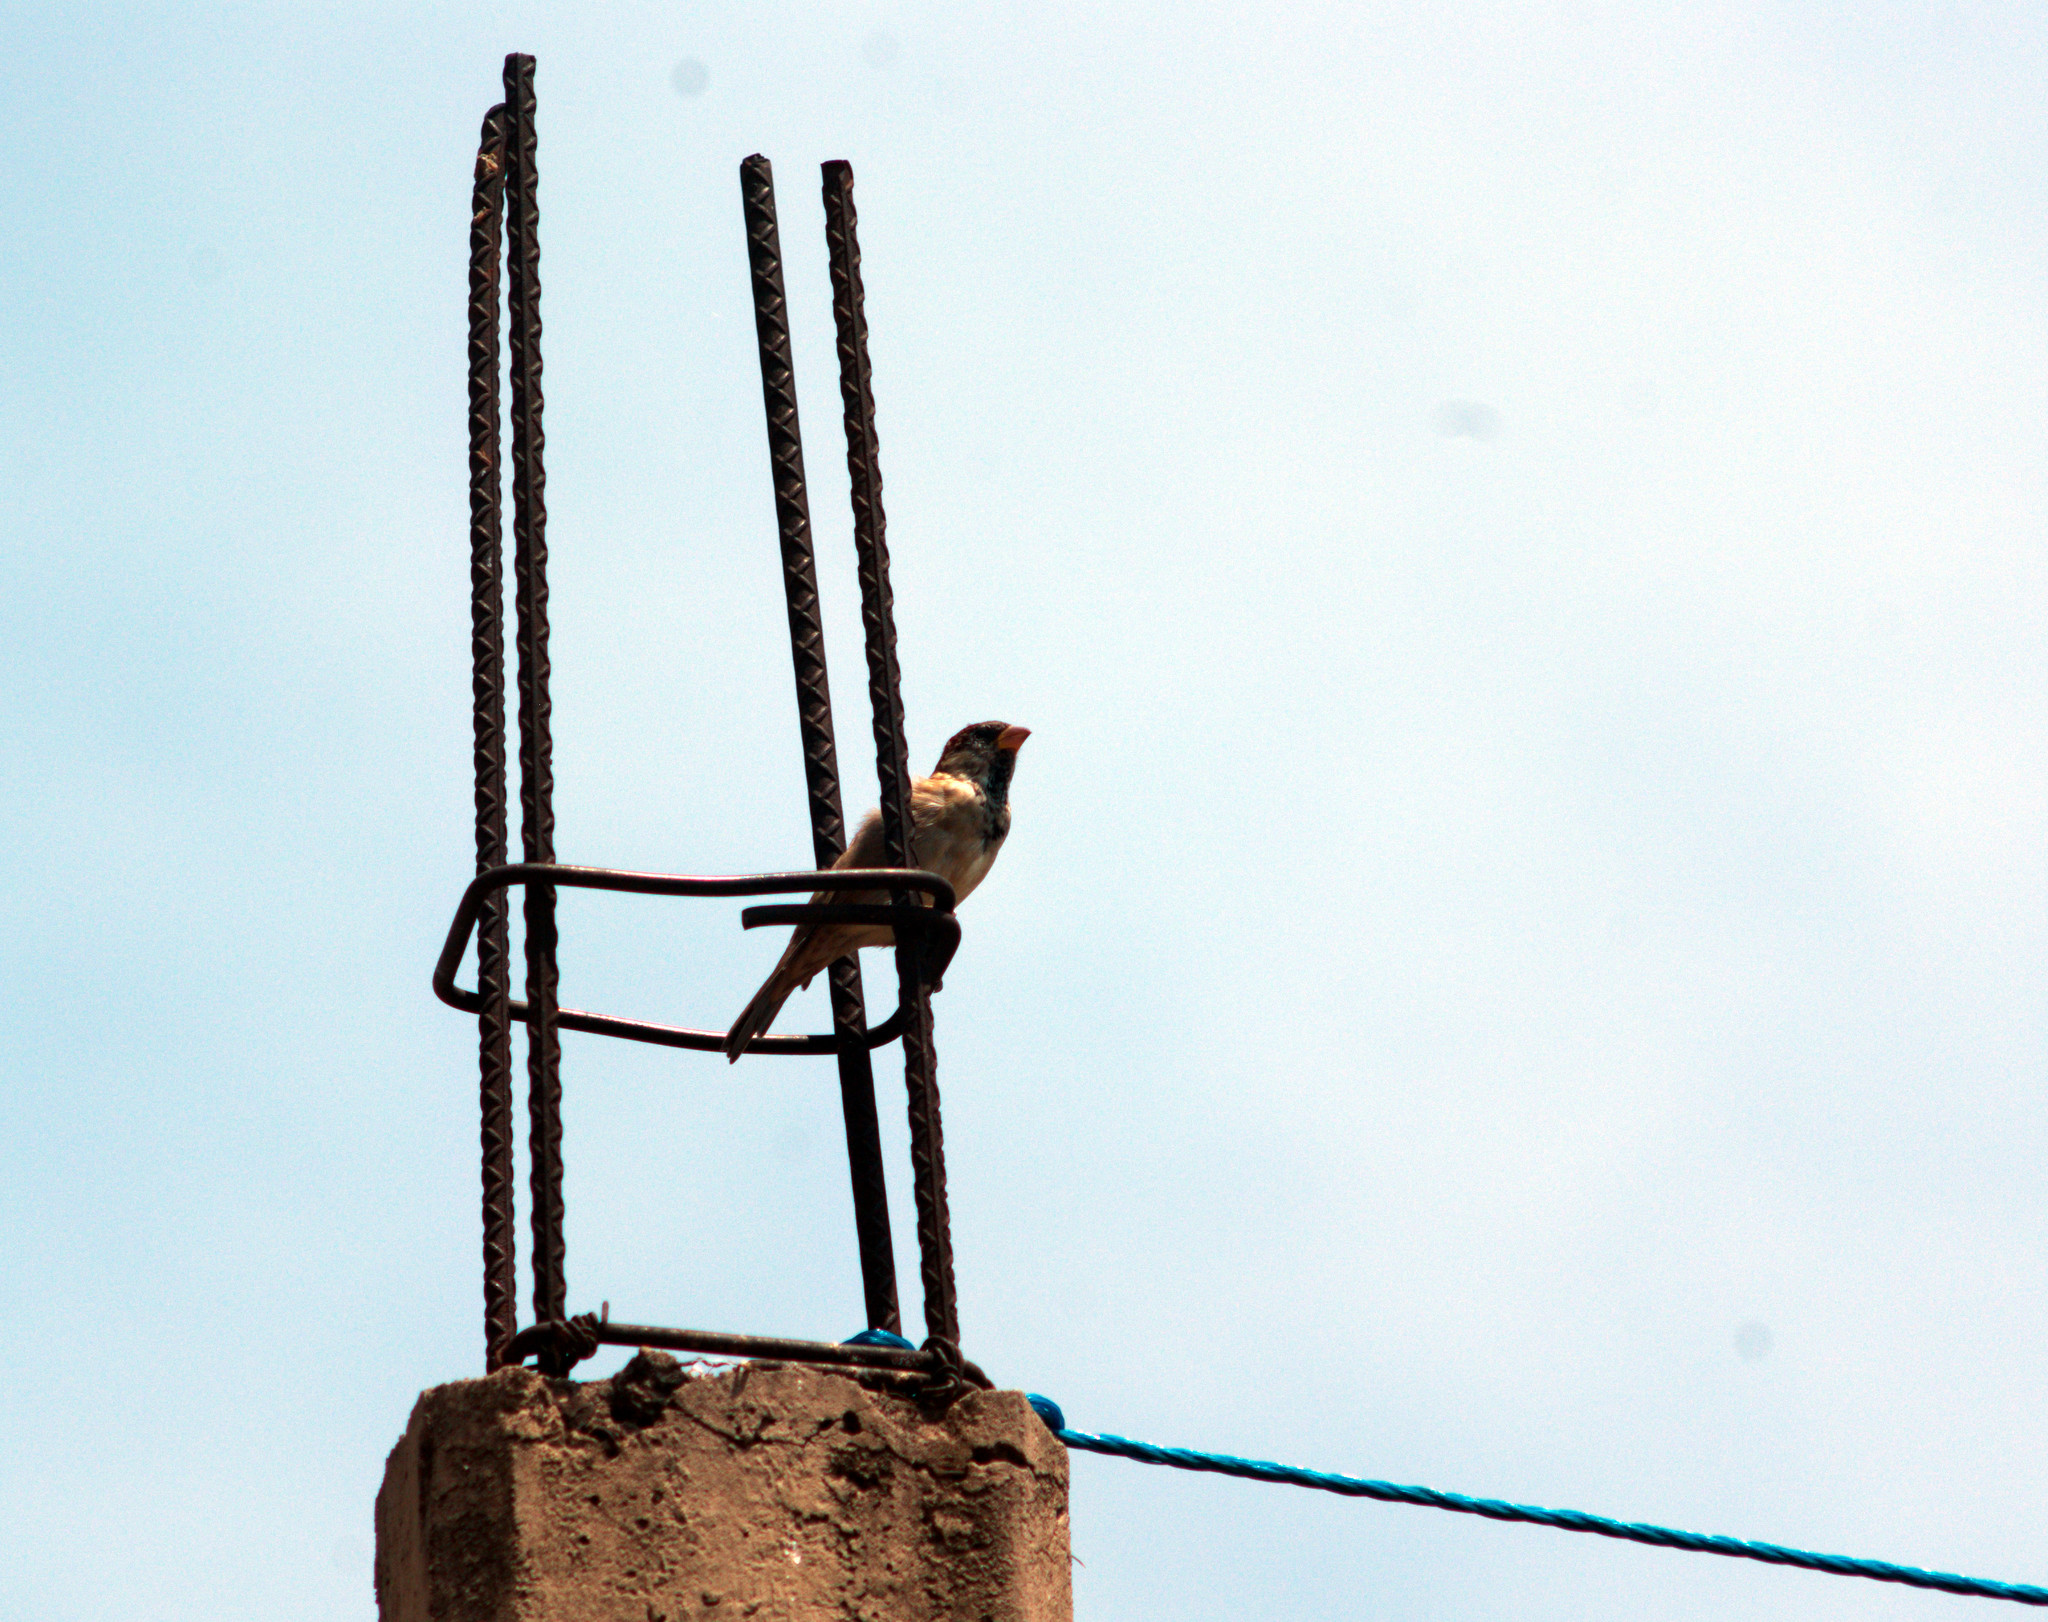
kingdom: Animalia
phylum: Chordata
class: Aves
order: Passeriformes
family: Passeridae
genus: Passer
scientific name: Passer domesticus
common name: House sparrow
